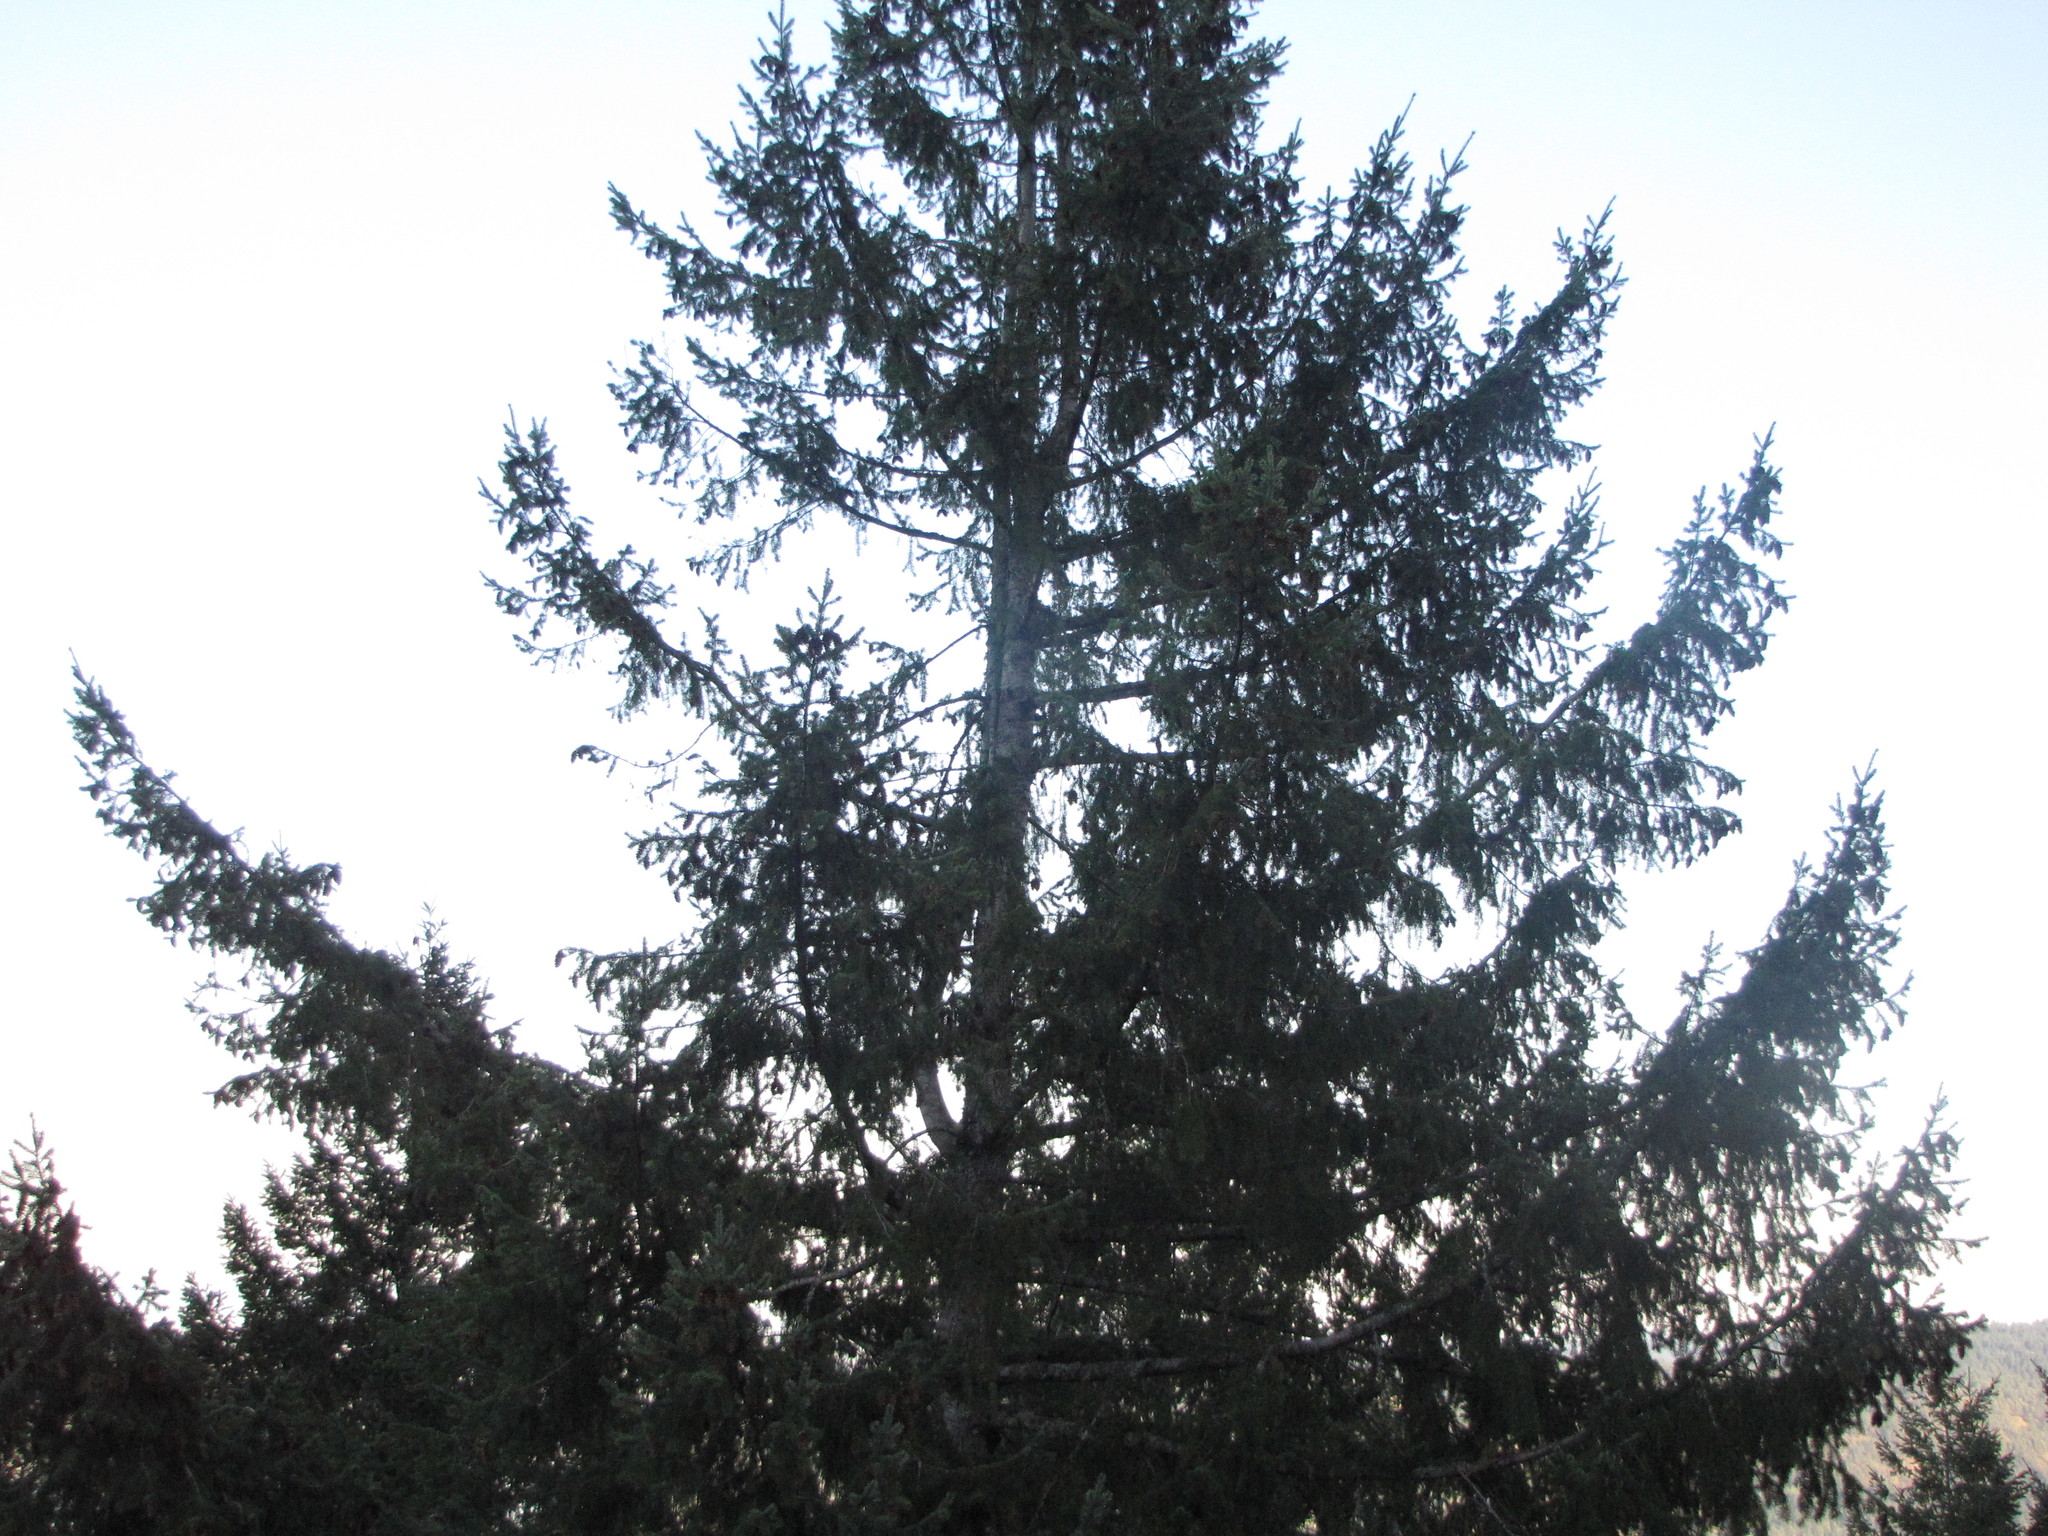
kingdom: Plantae
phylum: Tracheophyta
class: Pinopsida
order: Pinales
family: Pinaceae
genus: Pseudotsuga
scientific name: Pseudotsuga menziesii
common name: Douglas fir
